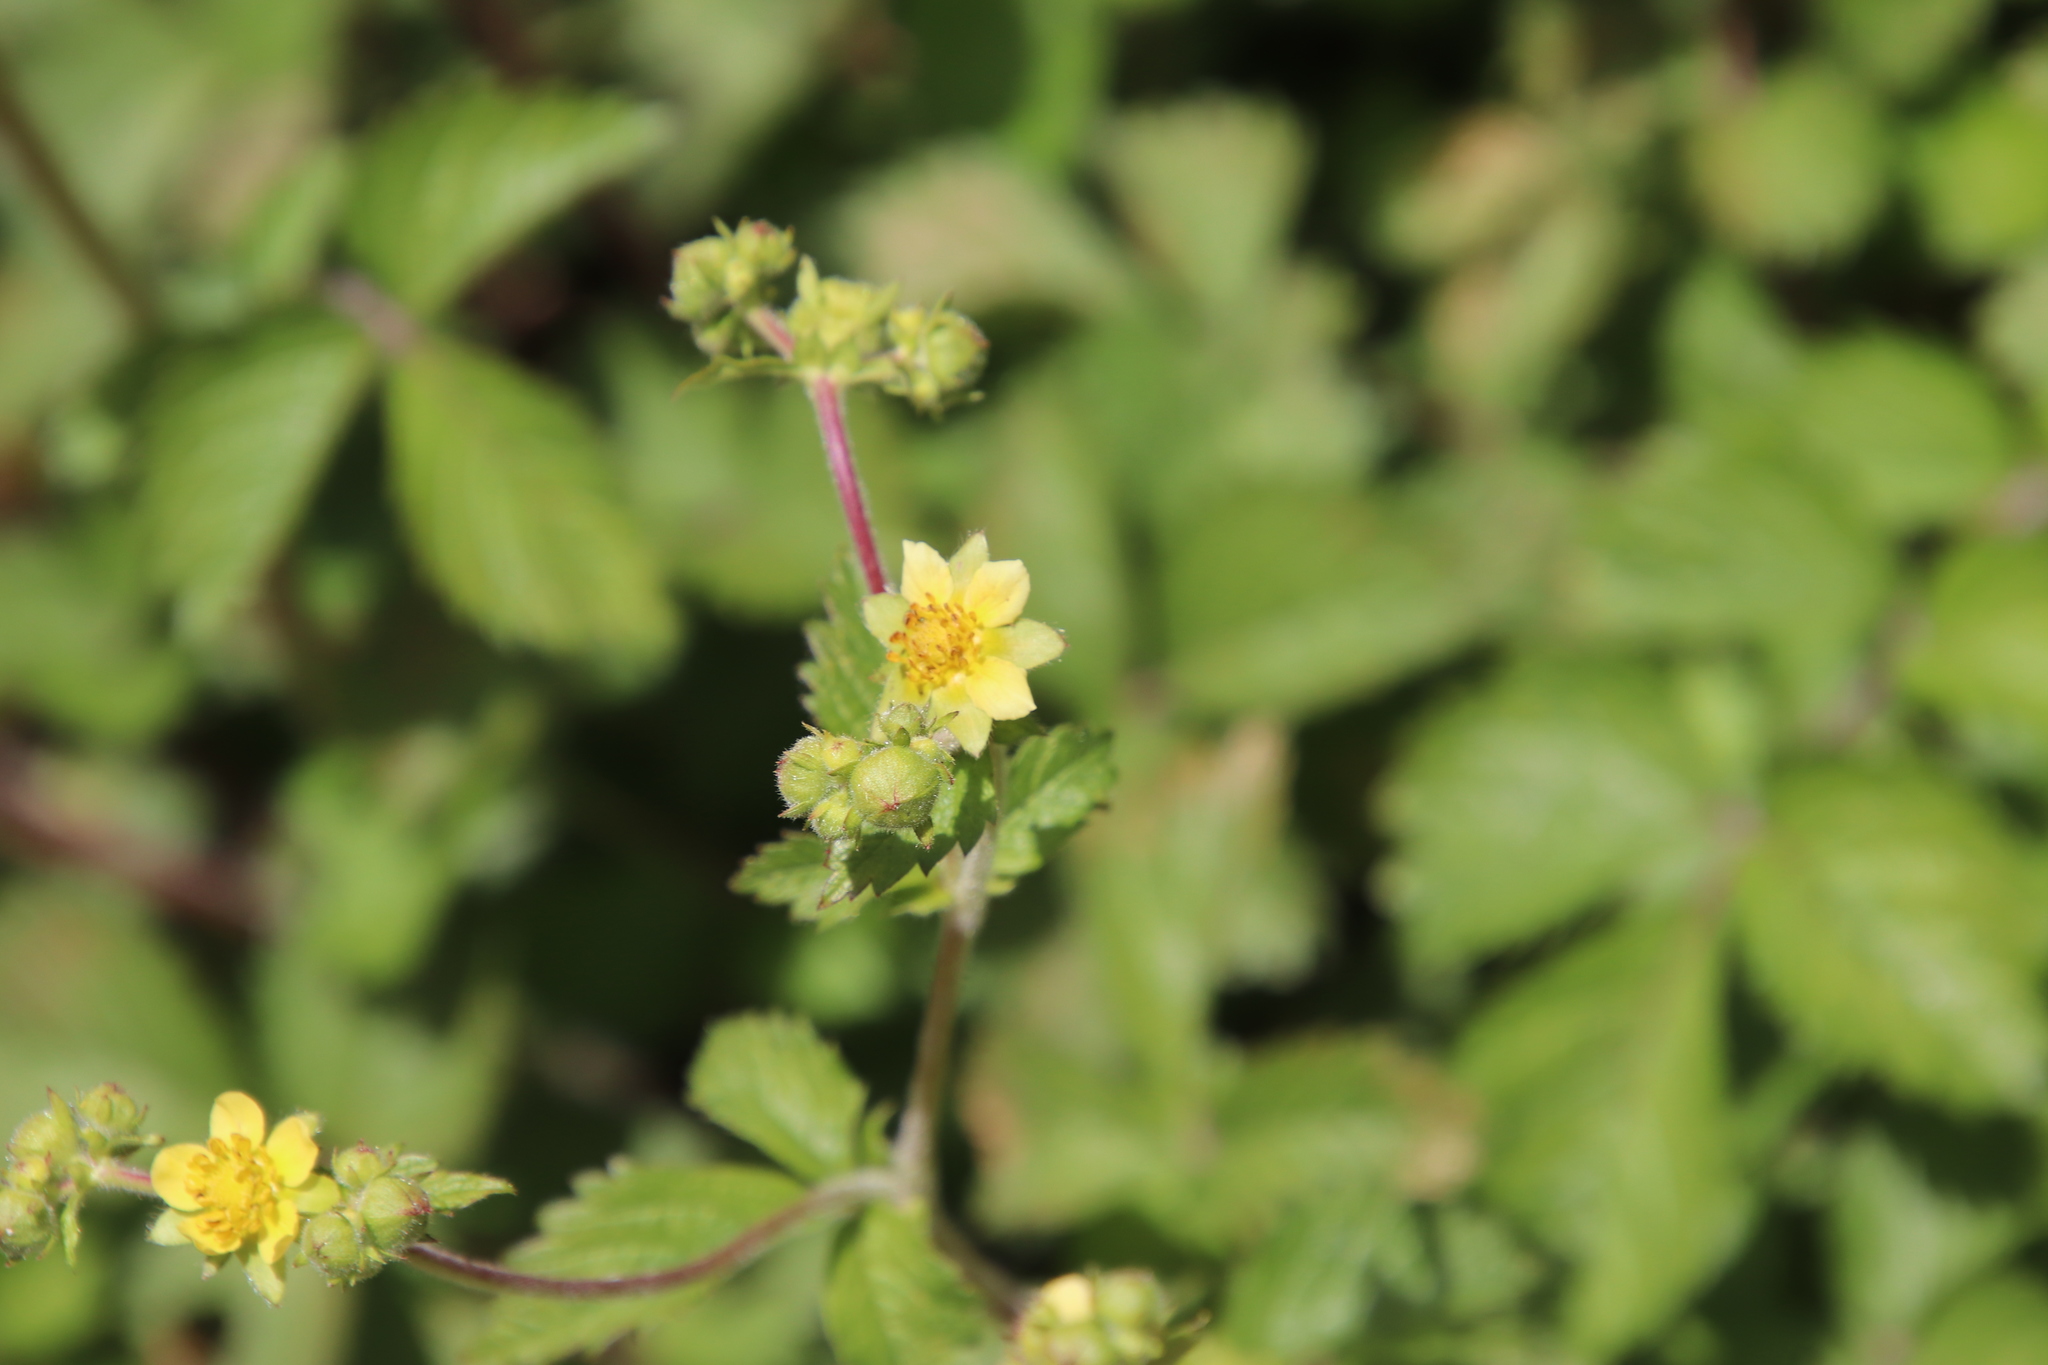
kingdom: Plantae
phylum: Tracheophyta
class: Magnoliopsida
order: Rosales
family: Rosaceae
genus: Drymocallis
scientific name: Drymocallis glandulosa
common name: Sticky cinquefoil
